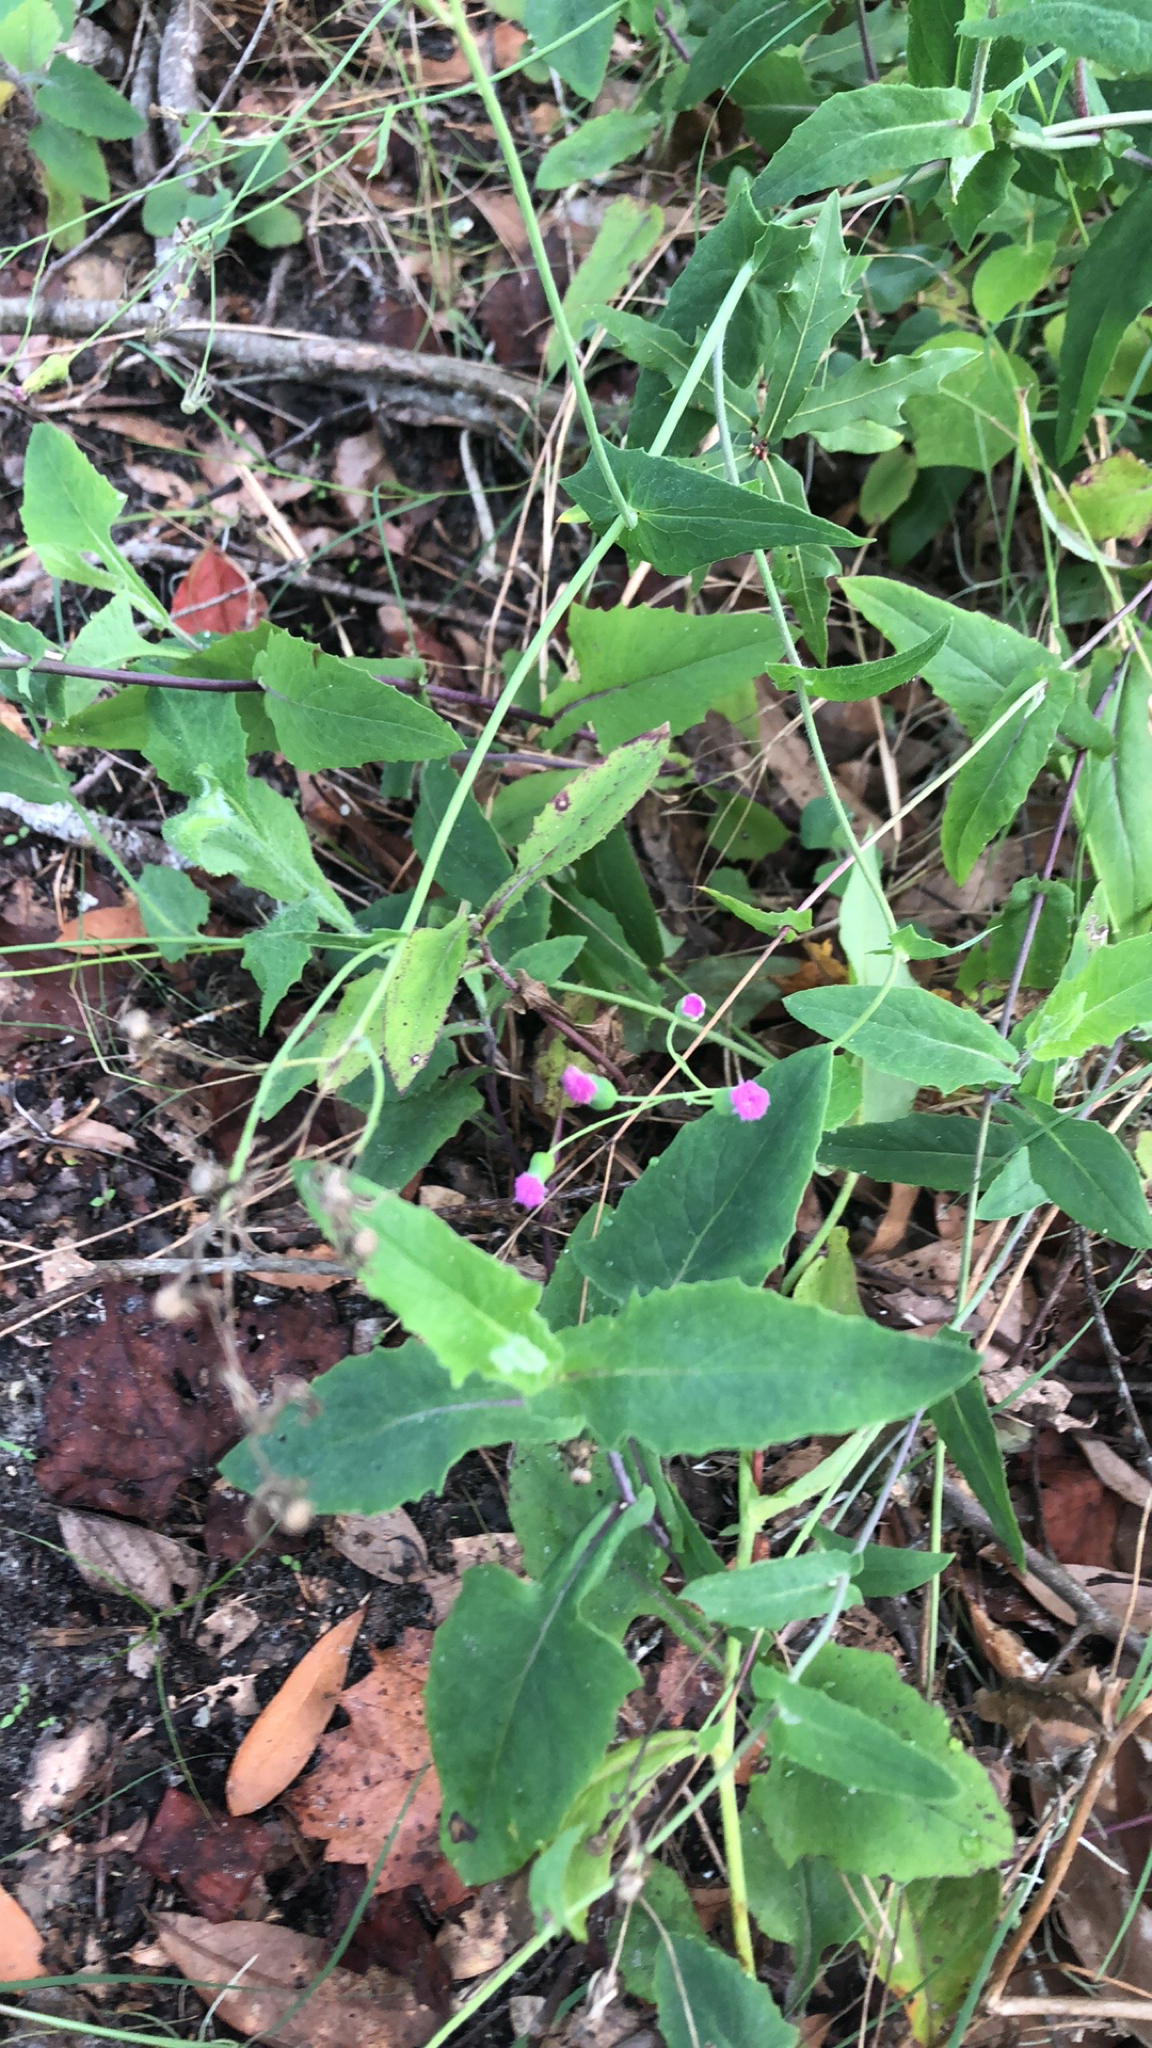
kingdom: Plantae
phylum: Tracheophyta
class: Magnoliopsida
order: Asterales
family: Asteraceae
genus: Emilia
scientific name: Emilia sonchifolia
